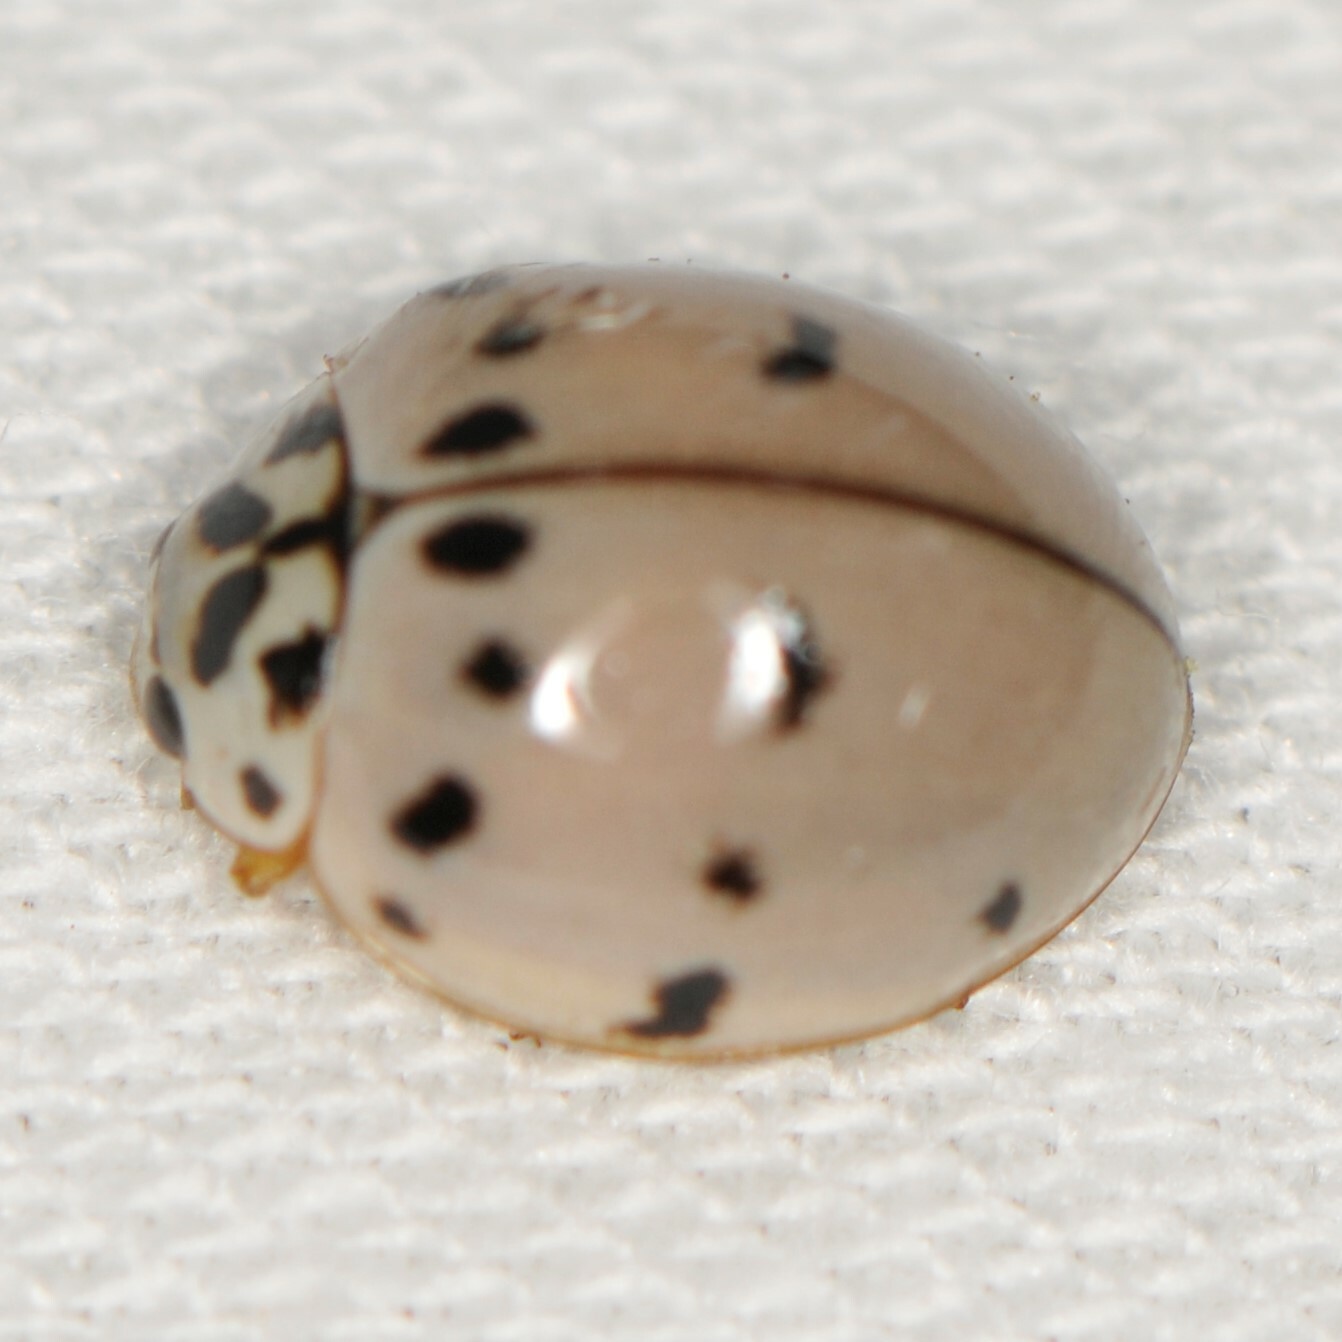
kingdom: Animalia
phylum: Arthropoda
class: Insecta
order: Coleoptera
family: Coccinellidae
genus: Olla
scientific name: Olla v-nigrum
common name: Ashy gray lady beetle
